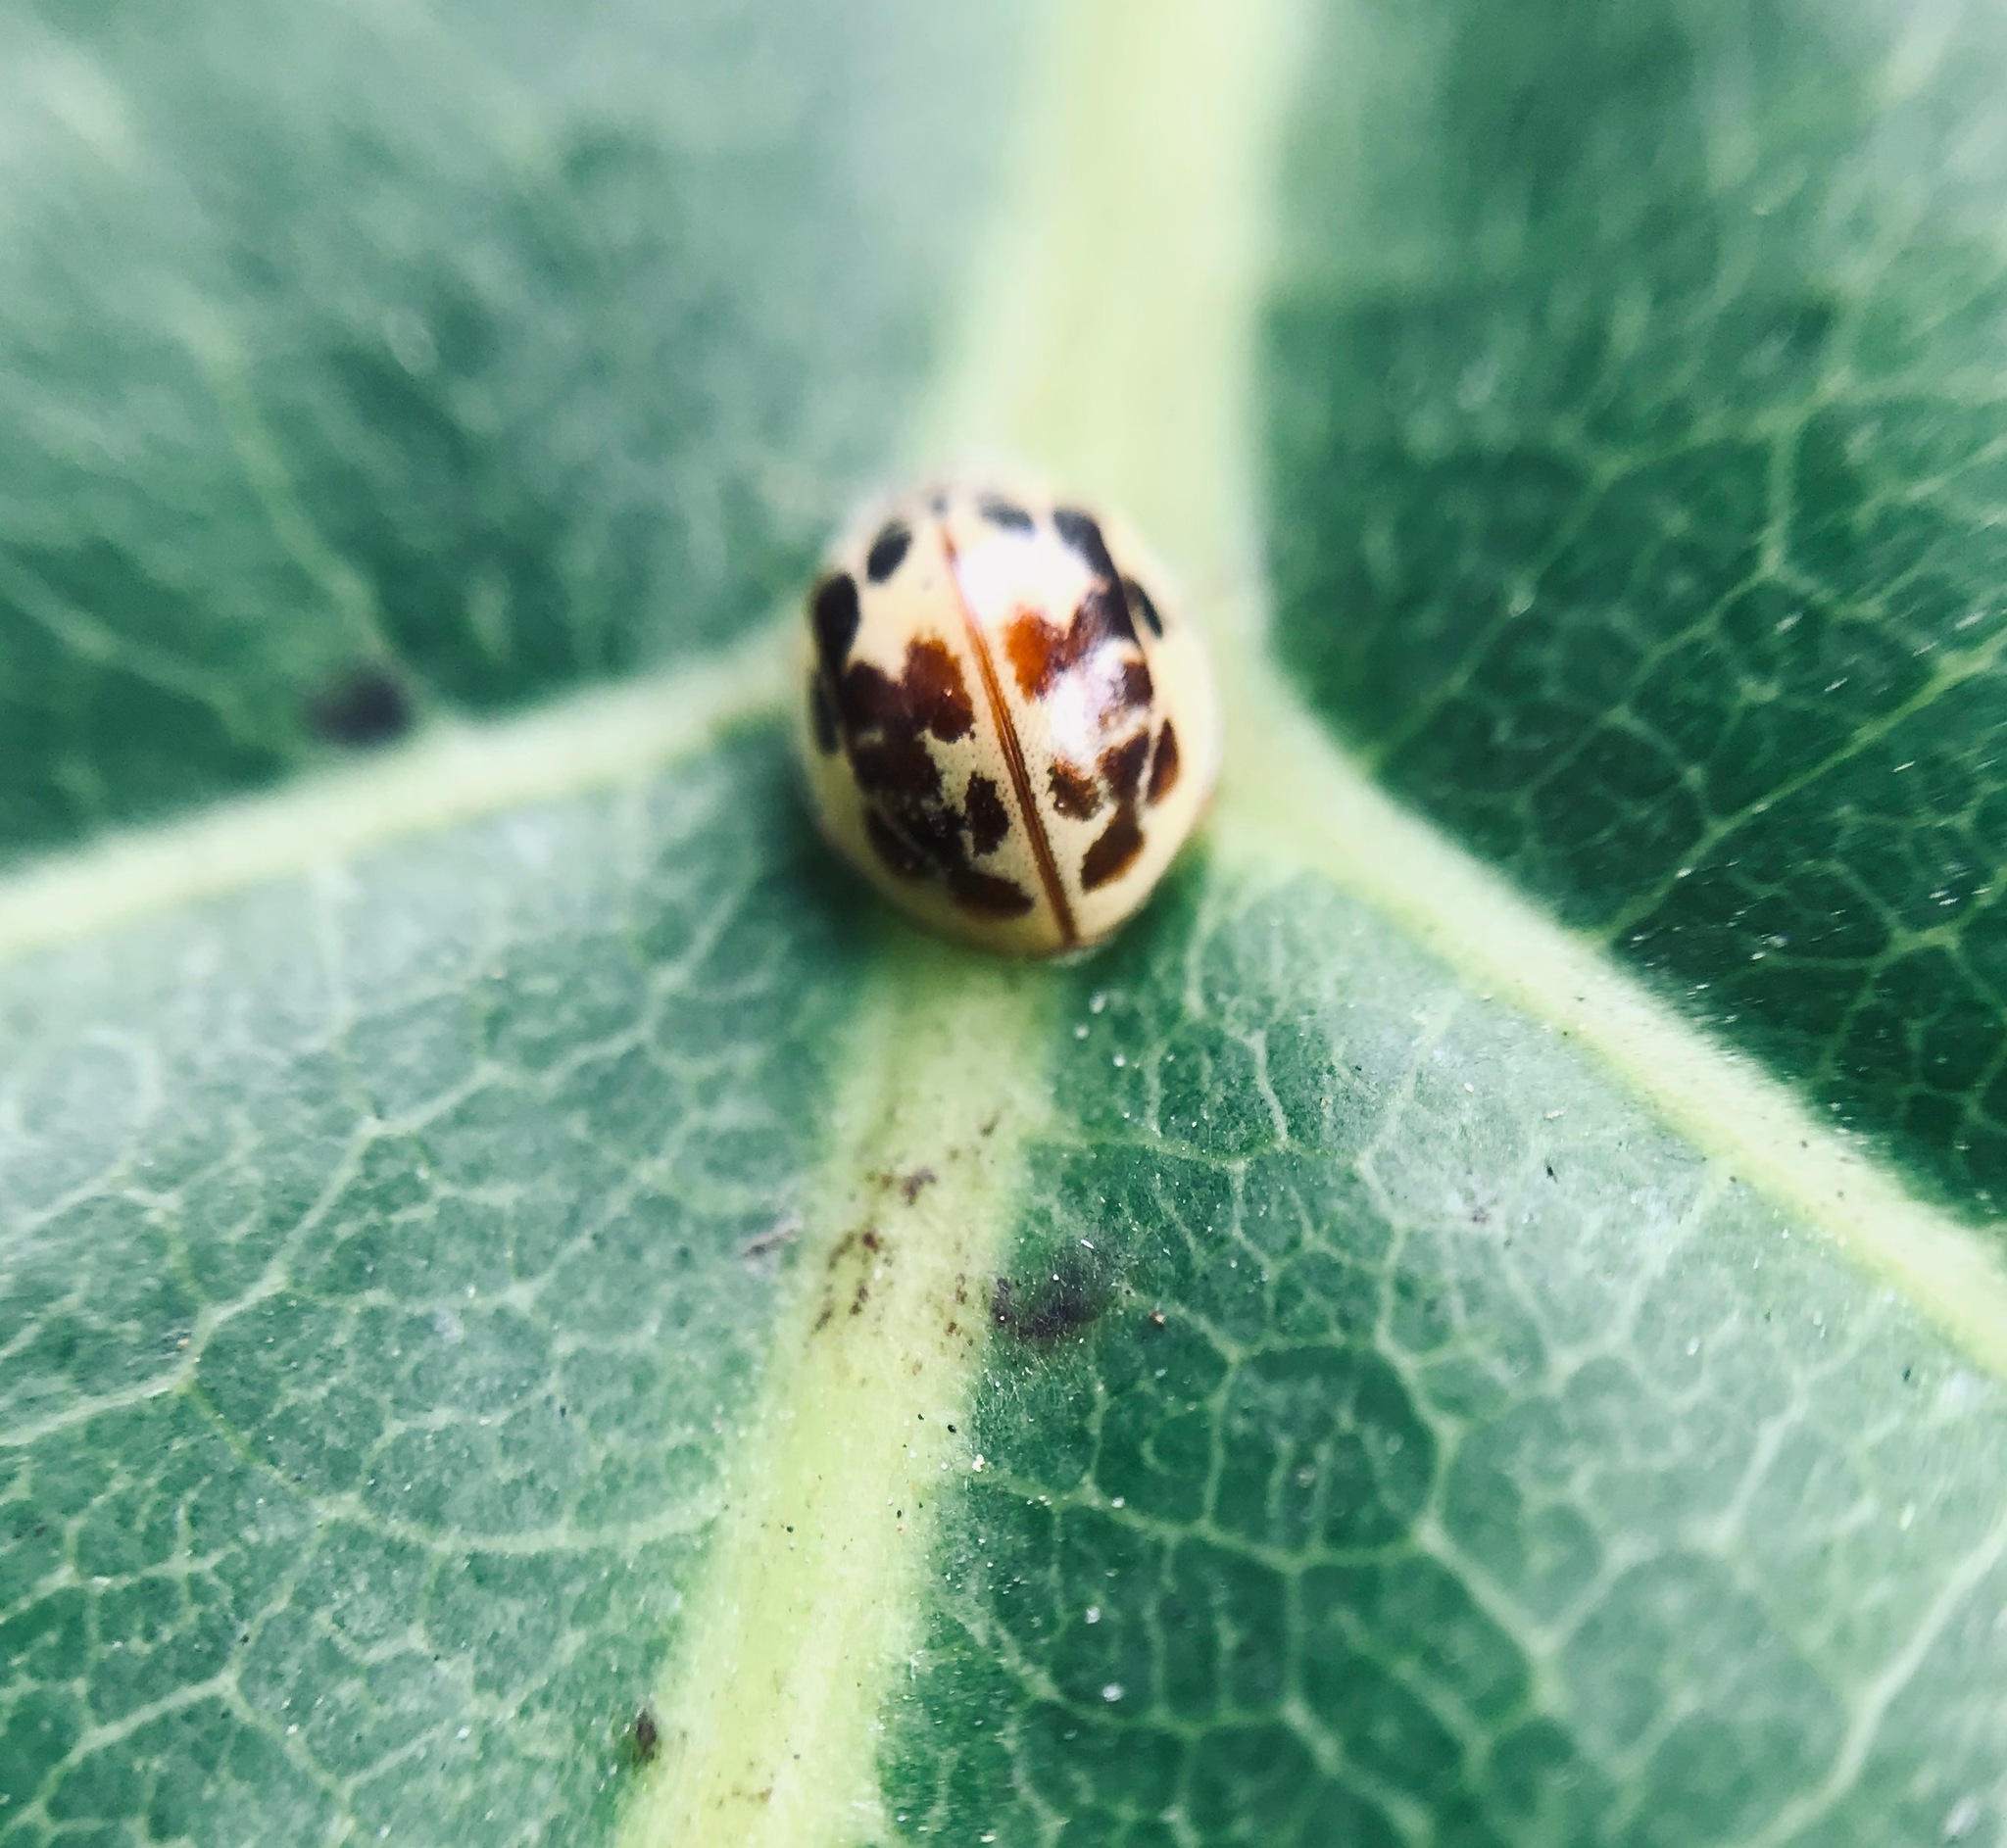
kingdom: Animalia
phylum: Arthropoda
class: Insecta
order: Coleoptera
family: Coccinellidae
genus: Psyllobora
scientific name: Psyllobora confluens
